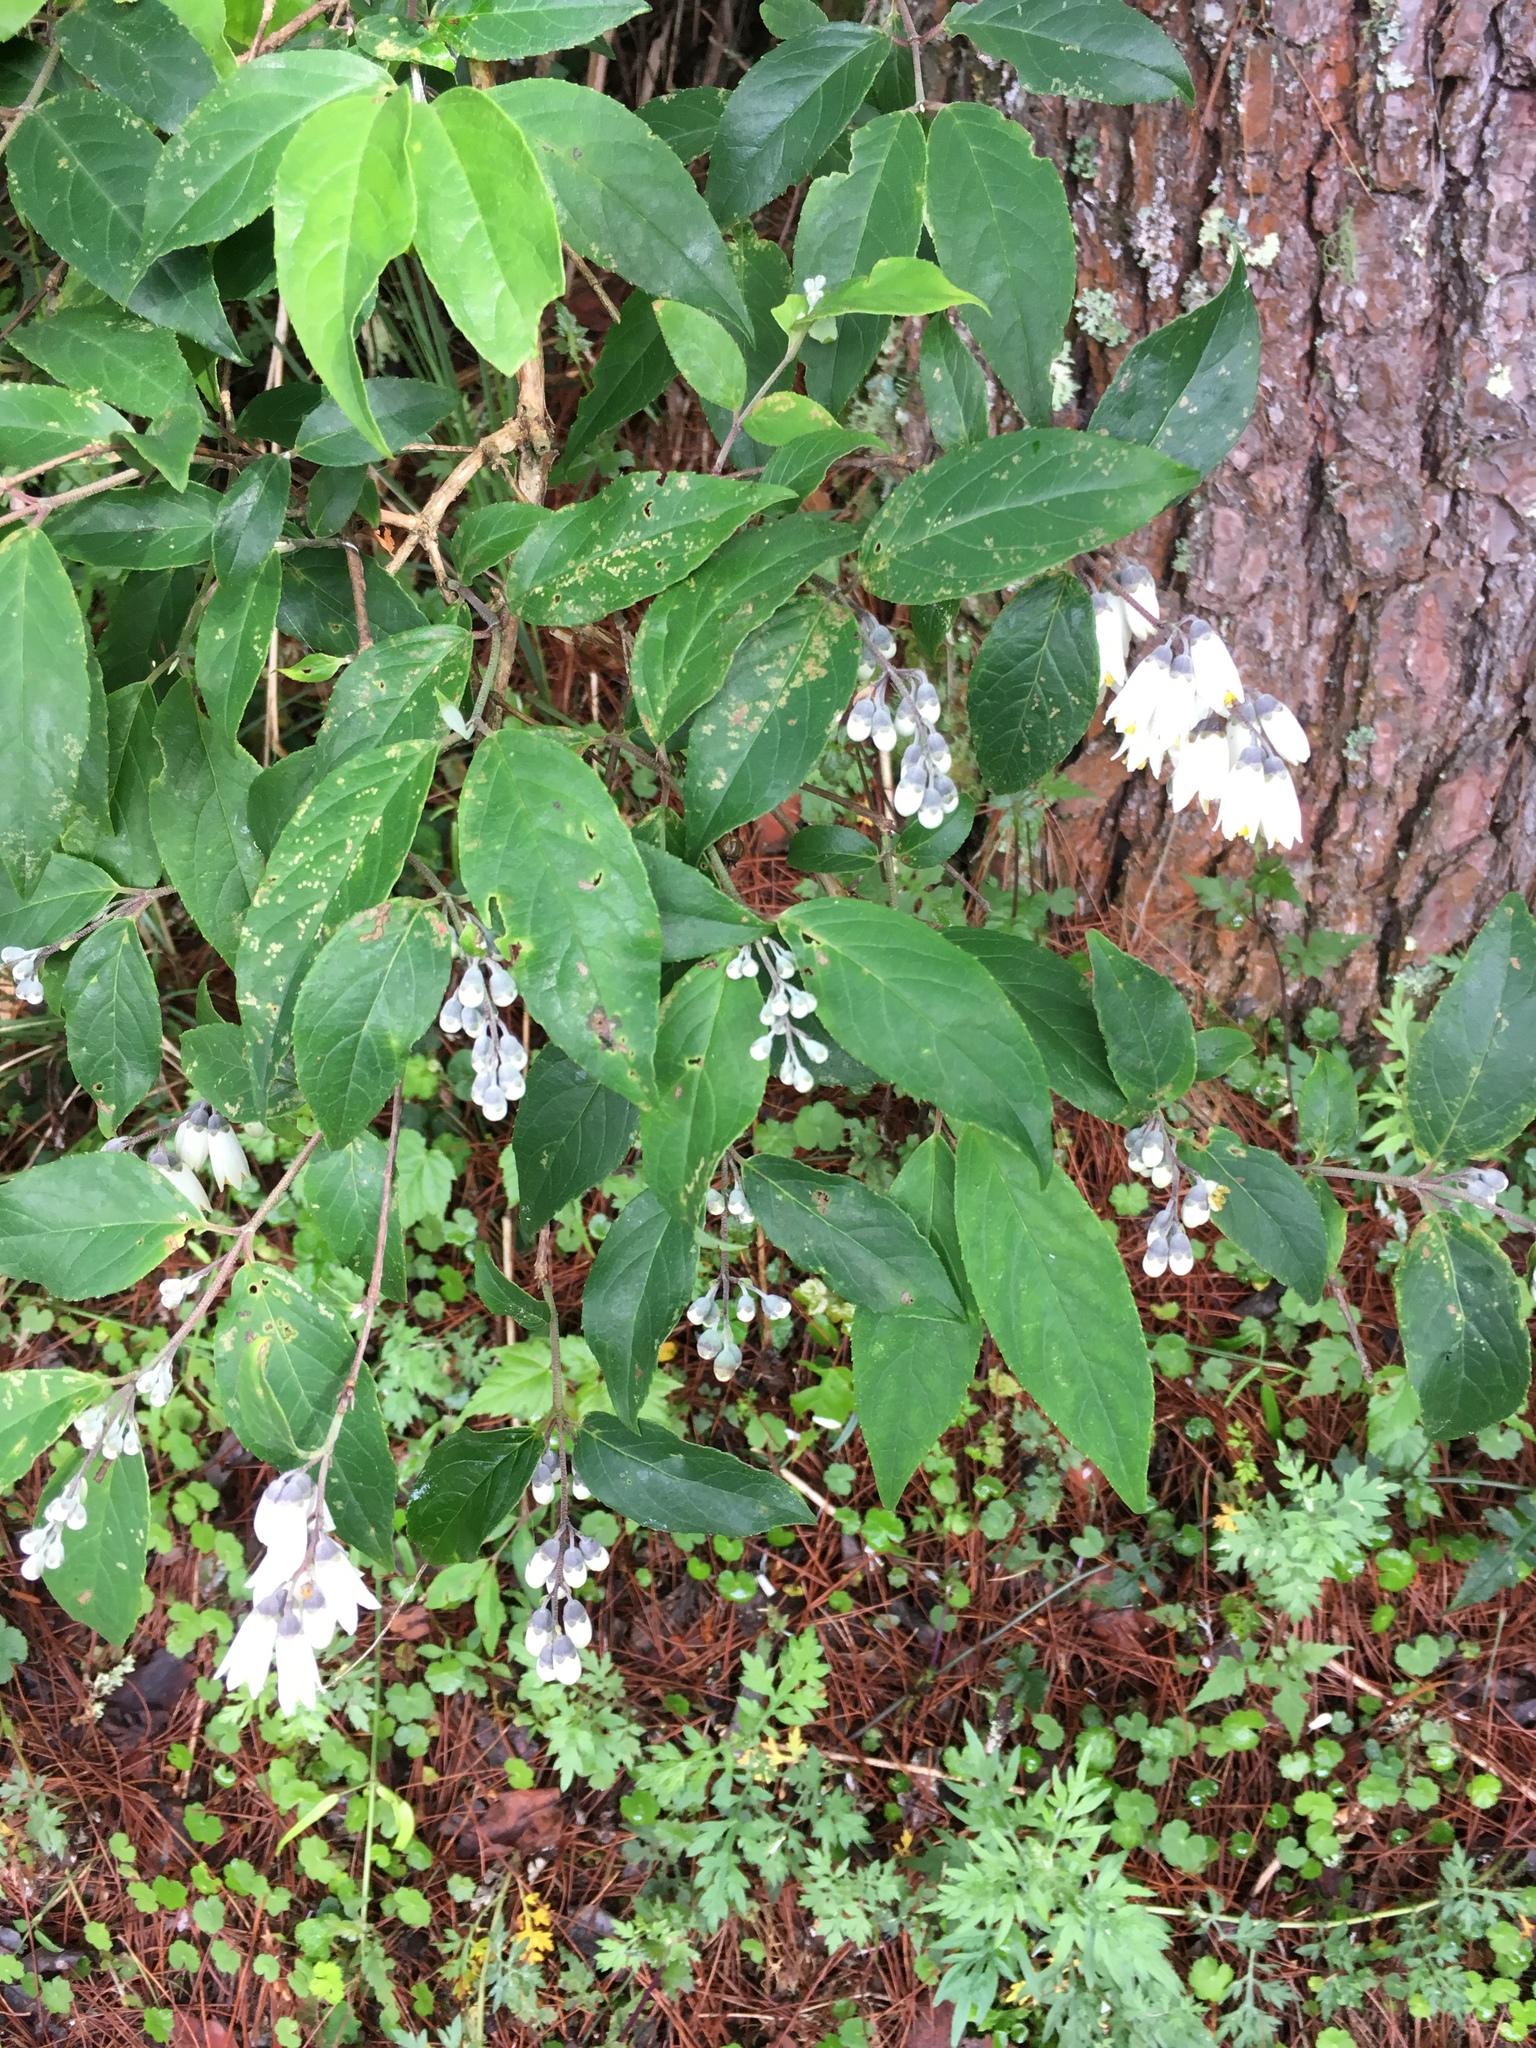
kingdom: Plantae
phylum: Tracheophyta
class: Magnoliopsida
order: Cornales
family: Hydrangeaceae
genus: Deutzia
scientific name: Deutzia pulchra
